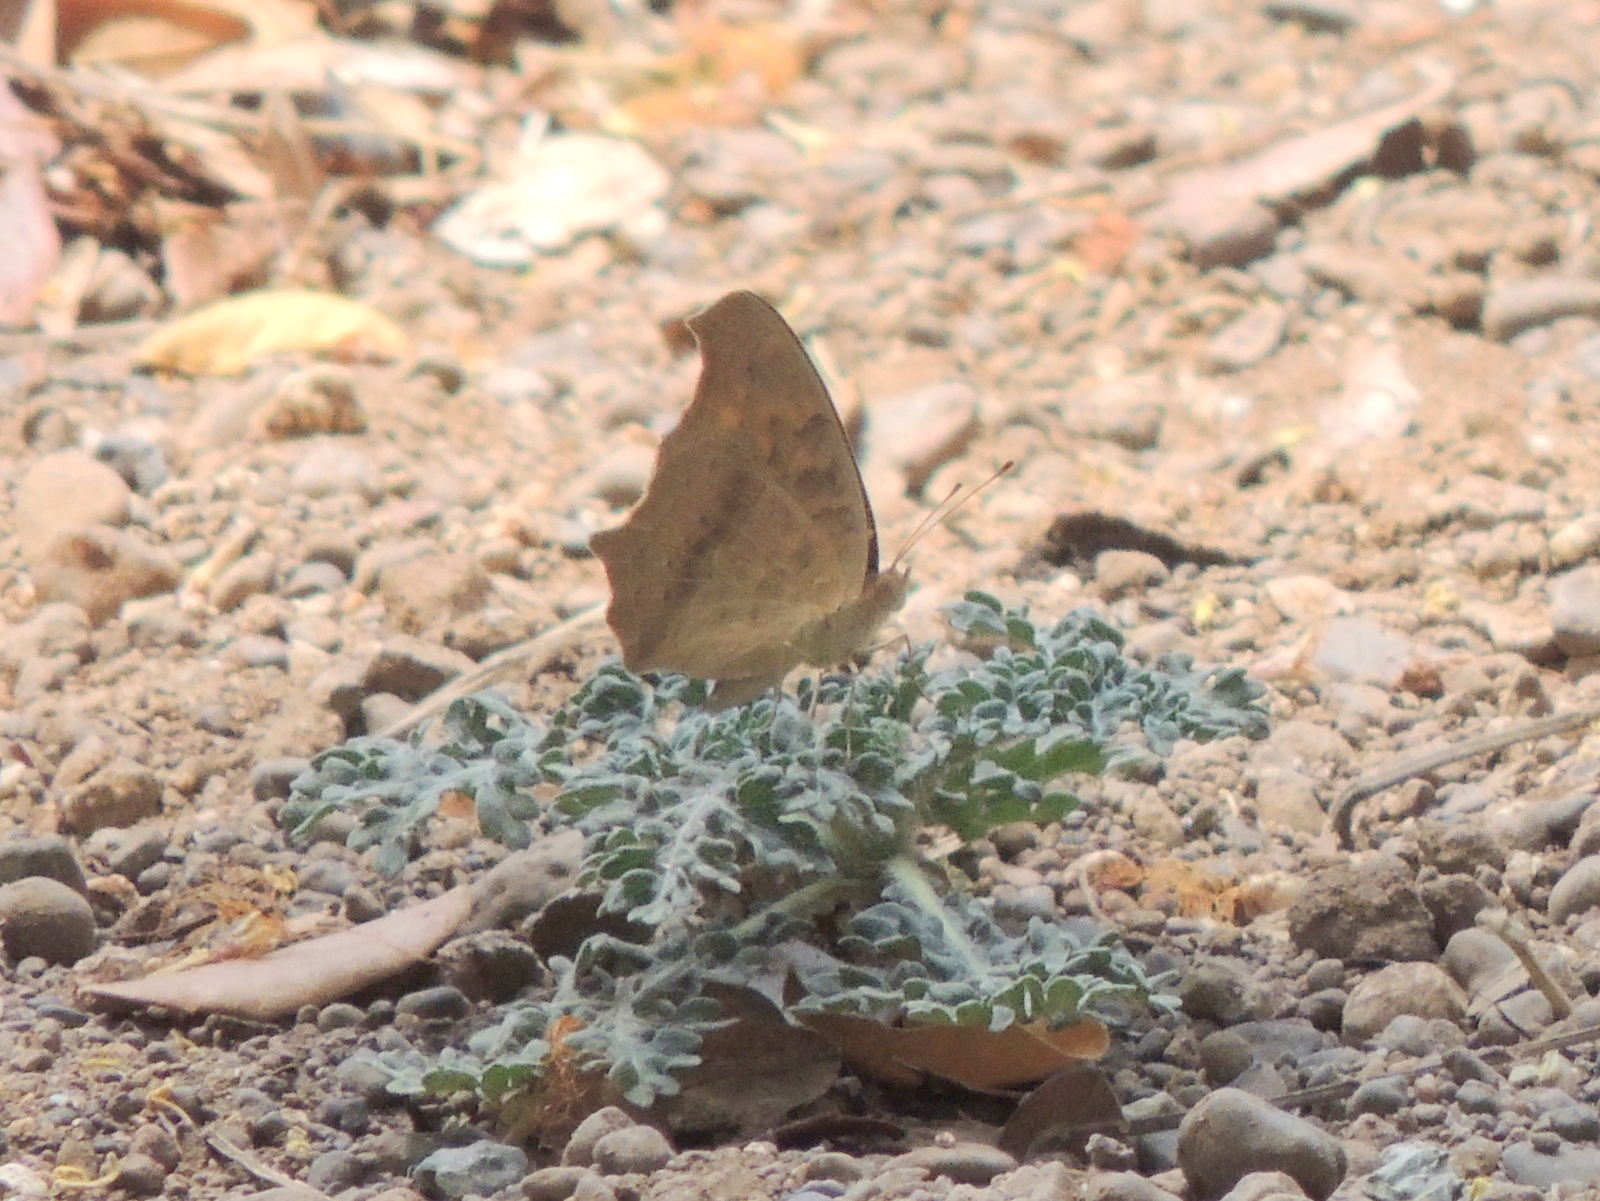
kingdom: Animalia
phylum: Arthropoda
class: Insecta
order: Lepidoptera
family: Nymphalidae
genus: Junonia
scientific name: Junonia lemonias
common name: Lemon pansy
